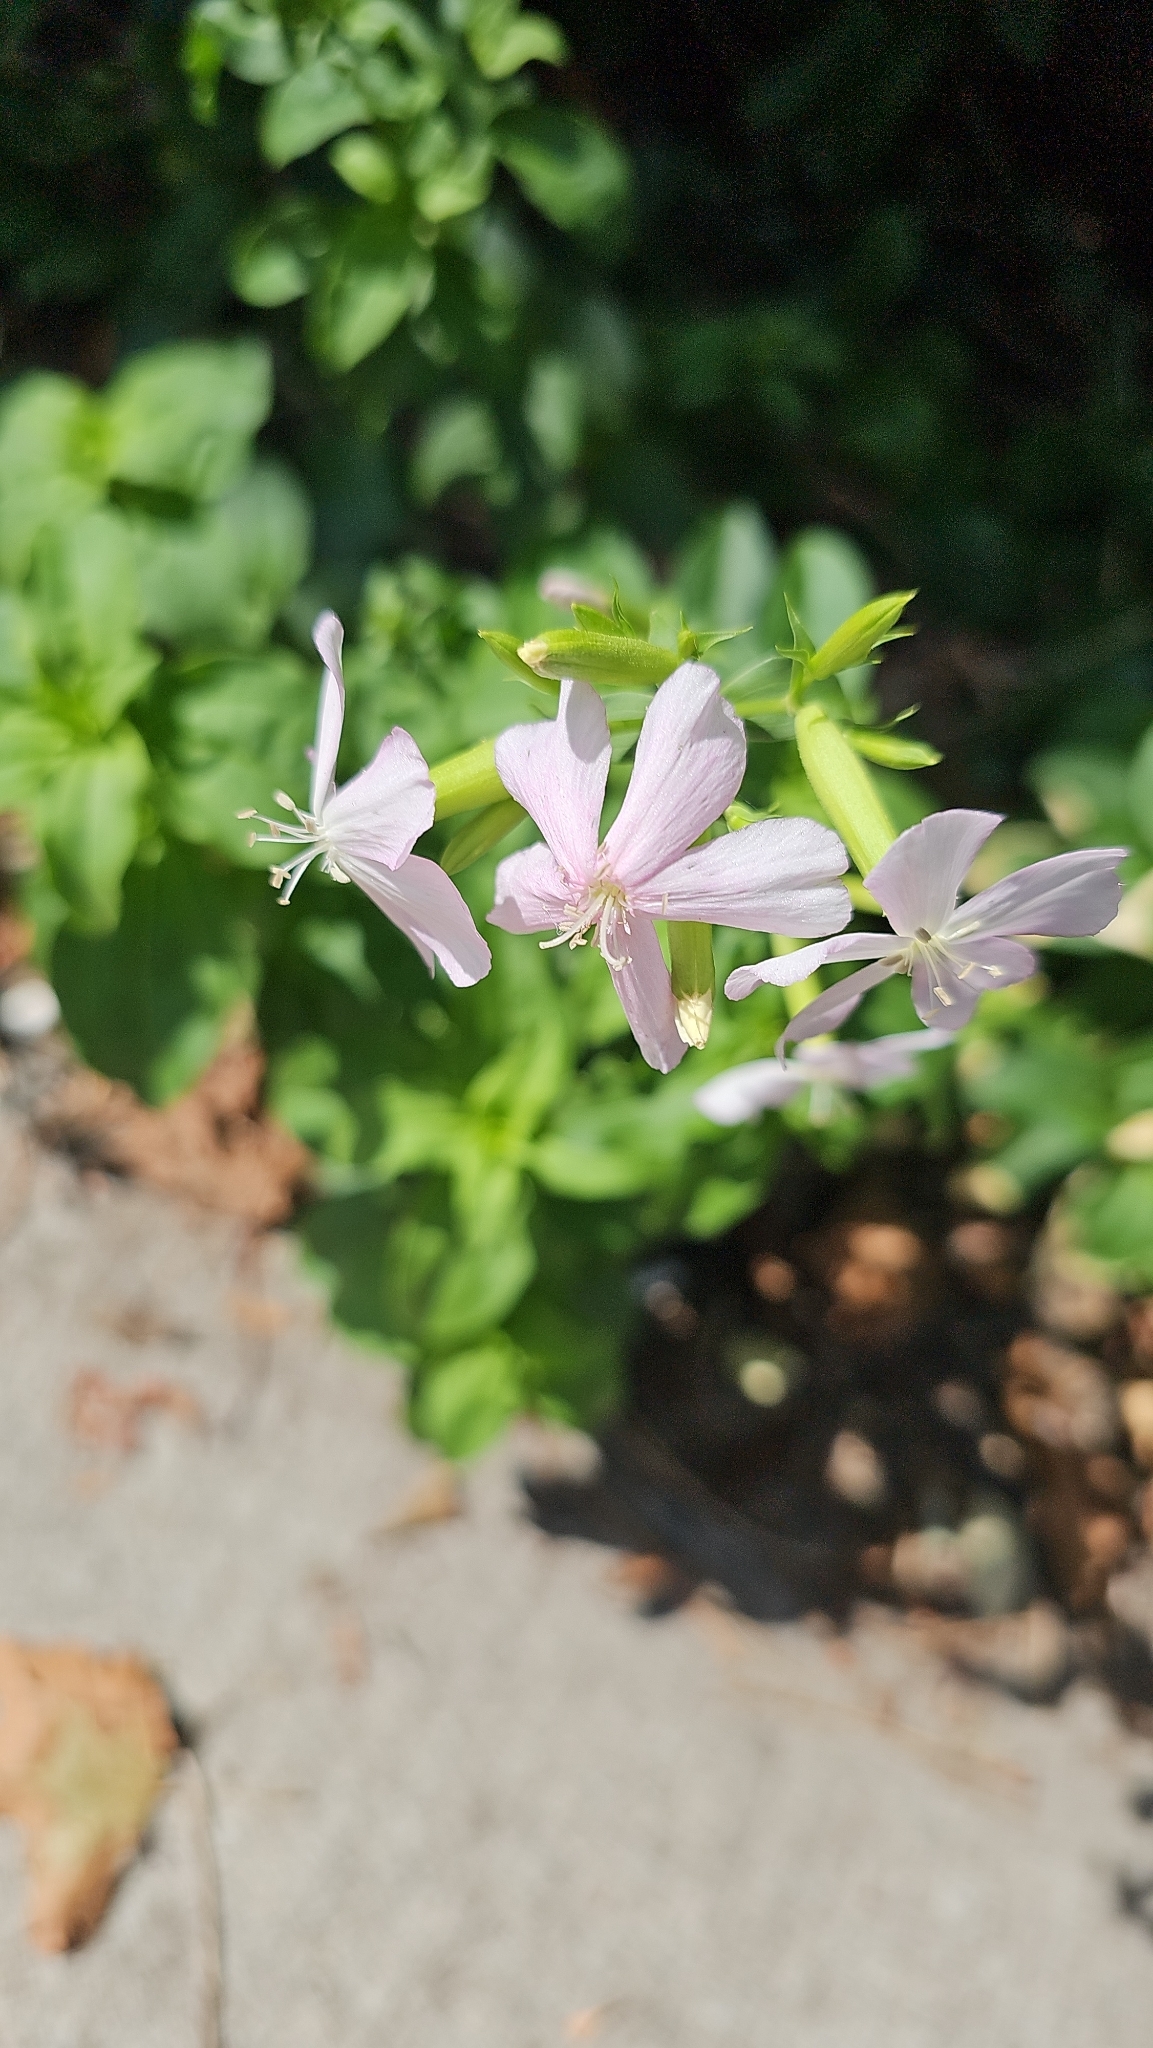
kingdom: Plantae
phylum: Tracheophyta
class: Magnoliopsida
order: Caryophyllales
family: Caryophyllaceae
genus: Saponaria
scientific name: Saponaria officinalis
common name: Soapwort
